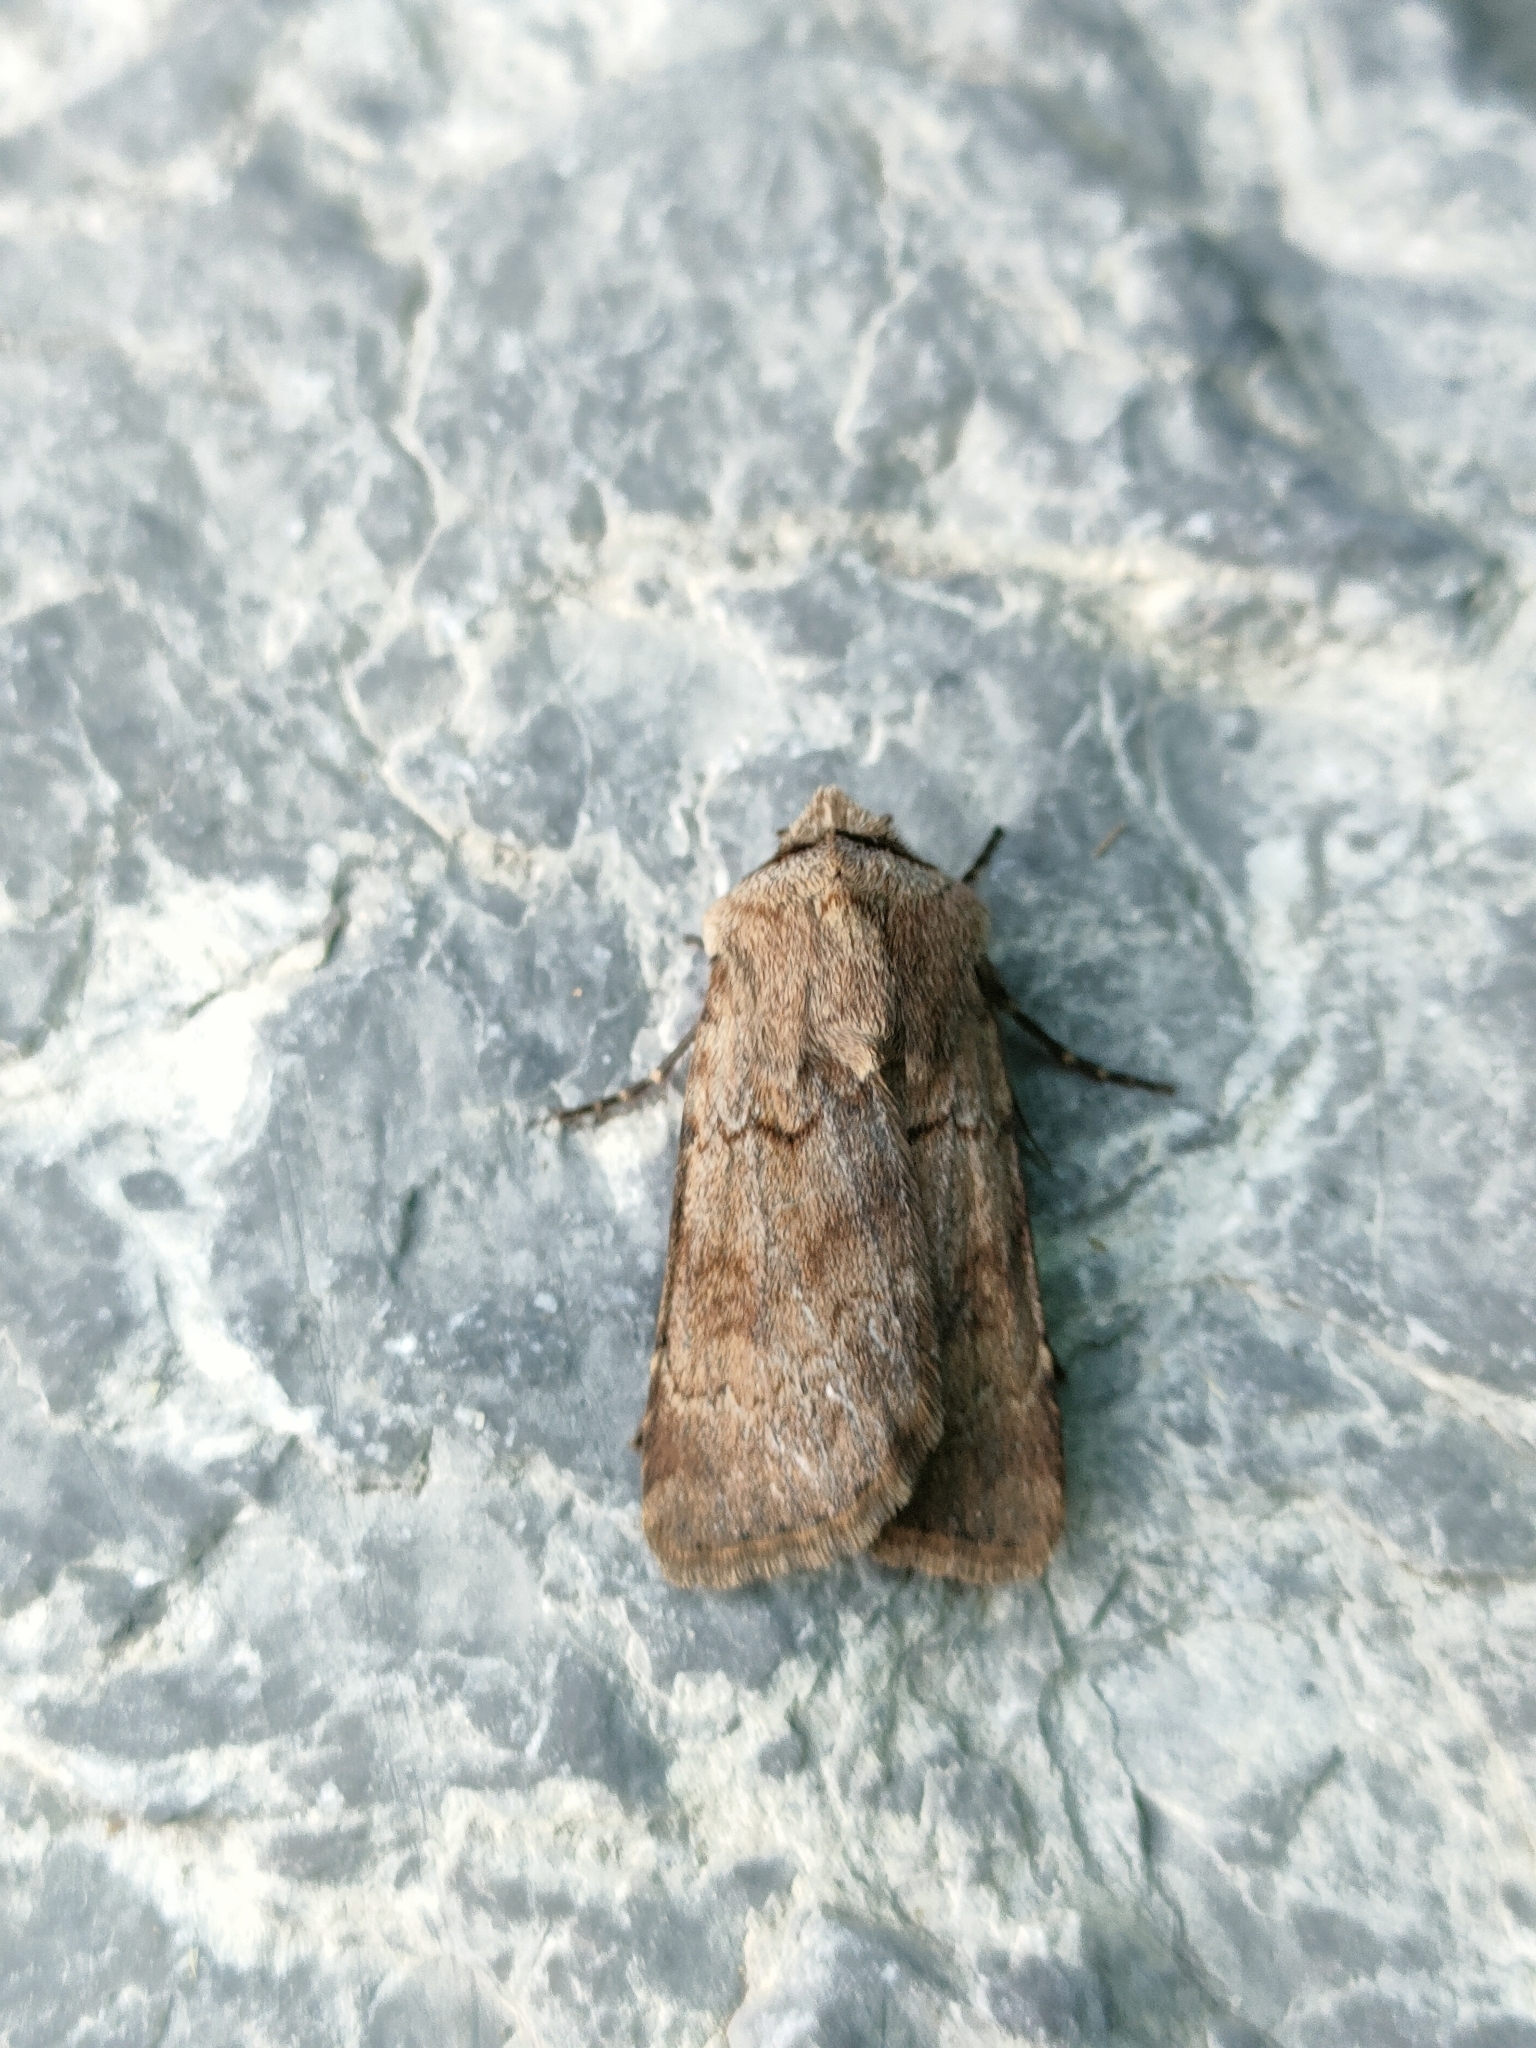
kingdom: Animalia
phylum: Arthropoda
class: Insecta
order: Lepidoptera
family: Noctuidae
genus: Agrotis
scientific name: Agrotis cinerea
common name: Light feathered rustic
